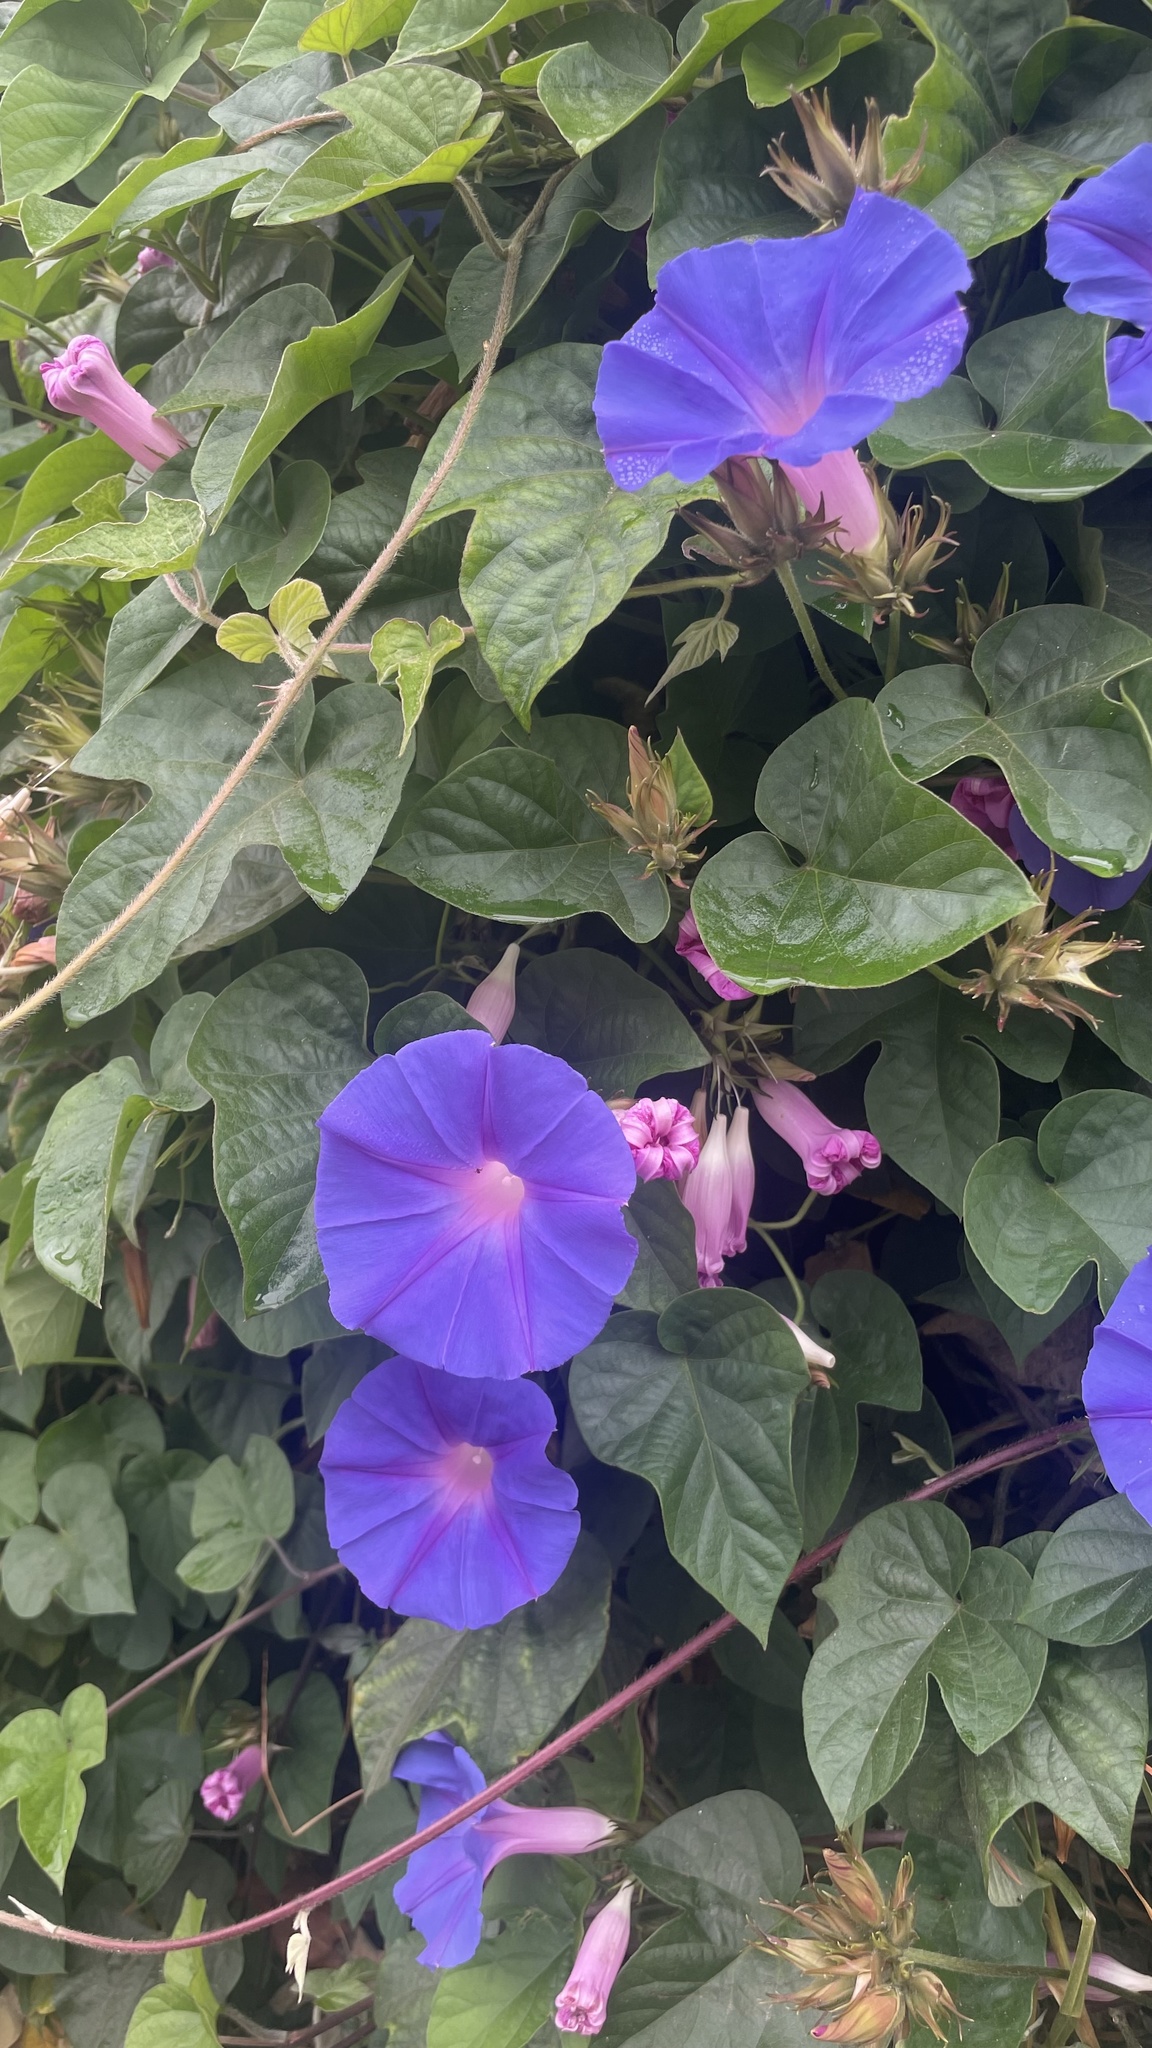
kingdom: Plantae
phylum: Tracheophyta
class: Magnoliopsida
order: Solanales
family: Convolvulaceae
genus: Ipomoea
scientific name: Ipomoea indica
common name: Blue dawnflower
